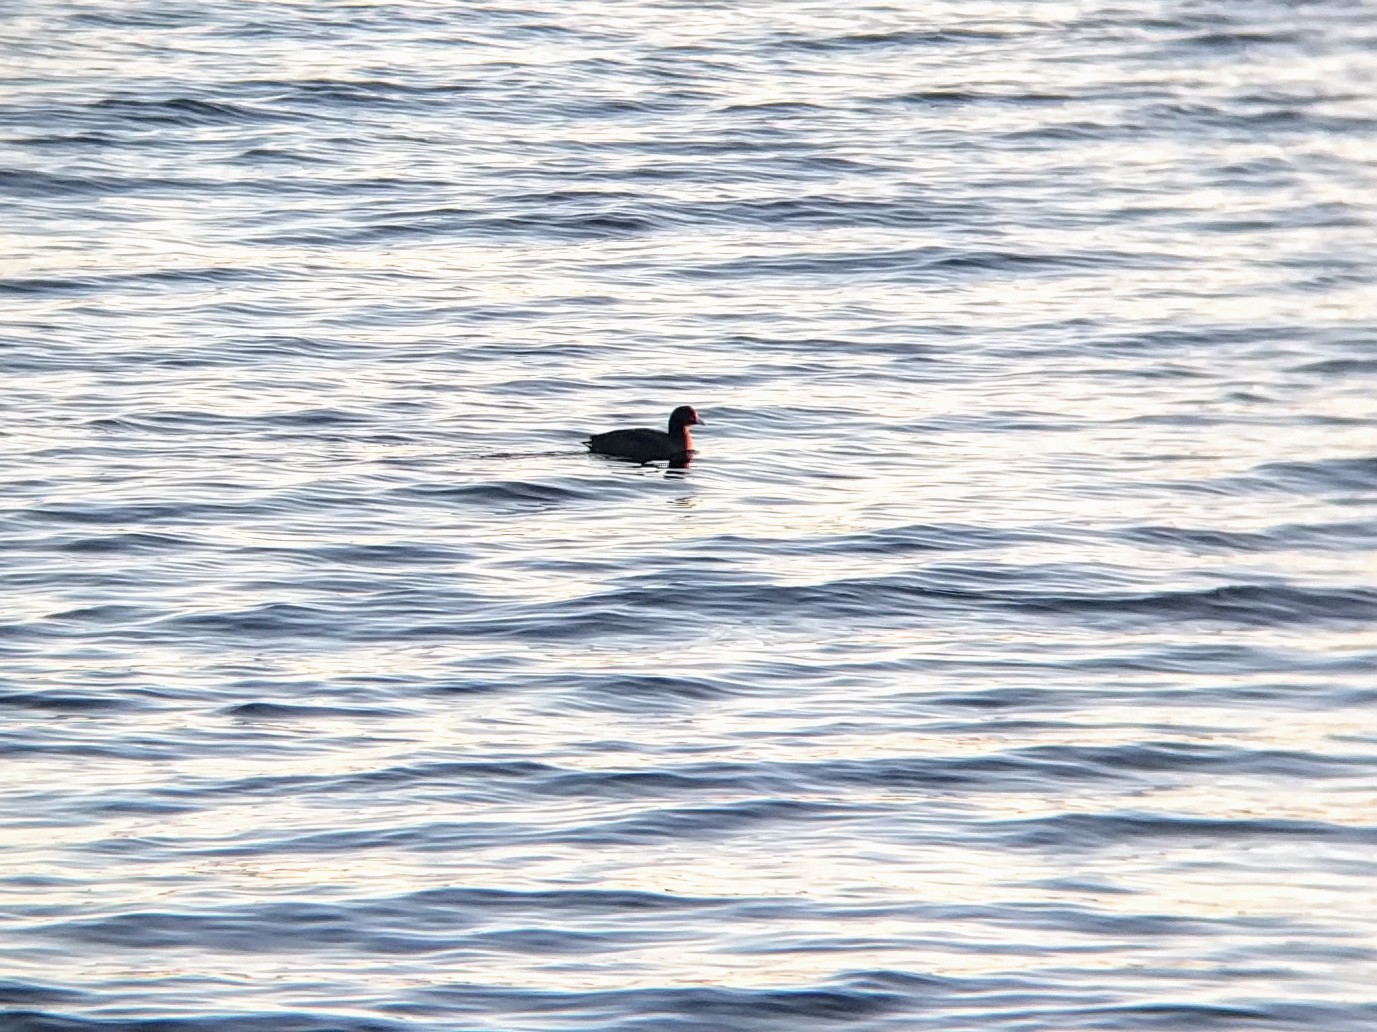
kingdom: Animalia
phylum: Chordata
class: Aves
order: Gruiformes
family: Rallidae
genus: Fulica
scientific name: Fulica americana
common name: American coot
